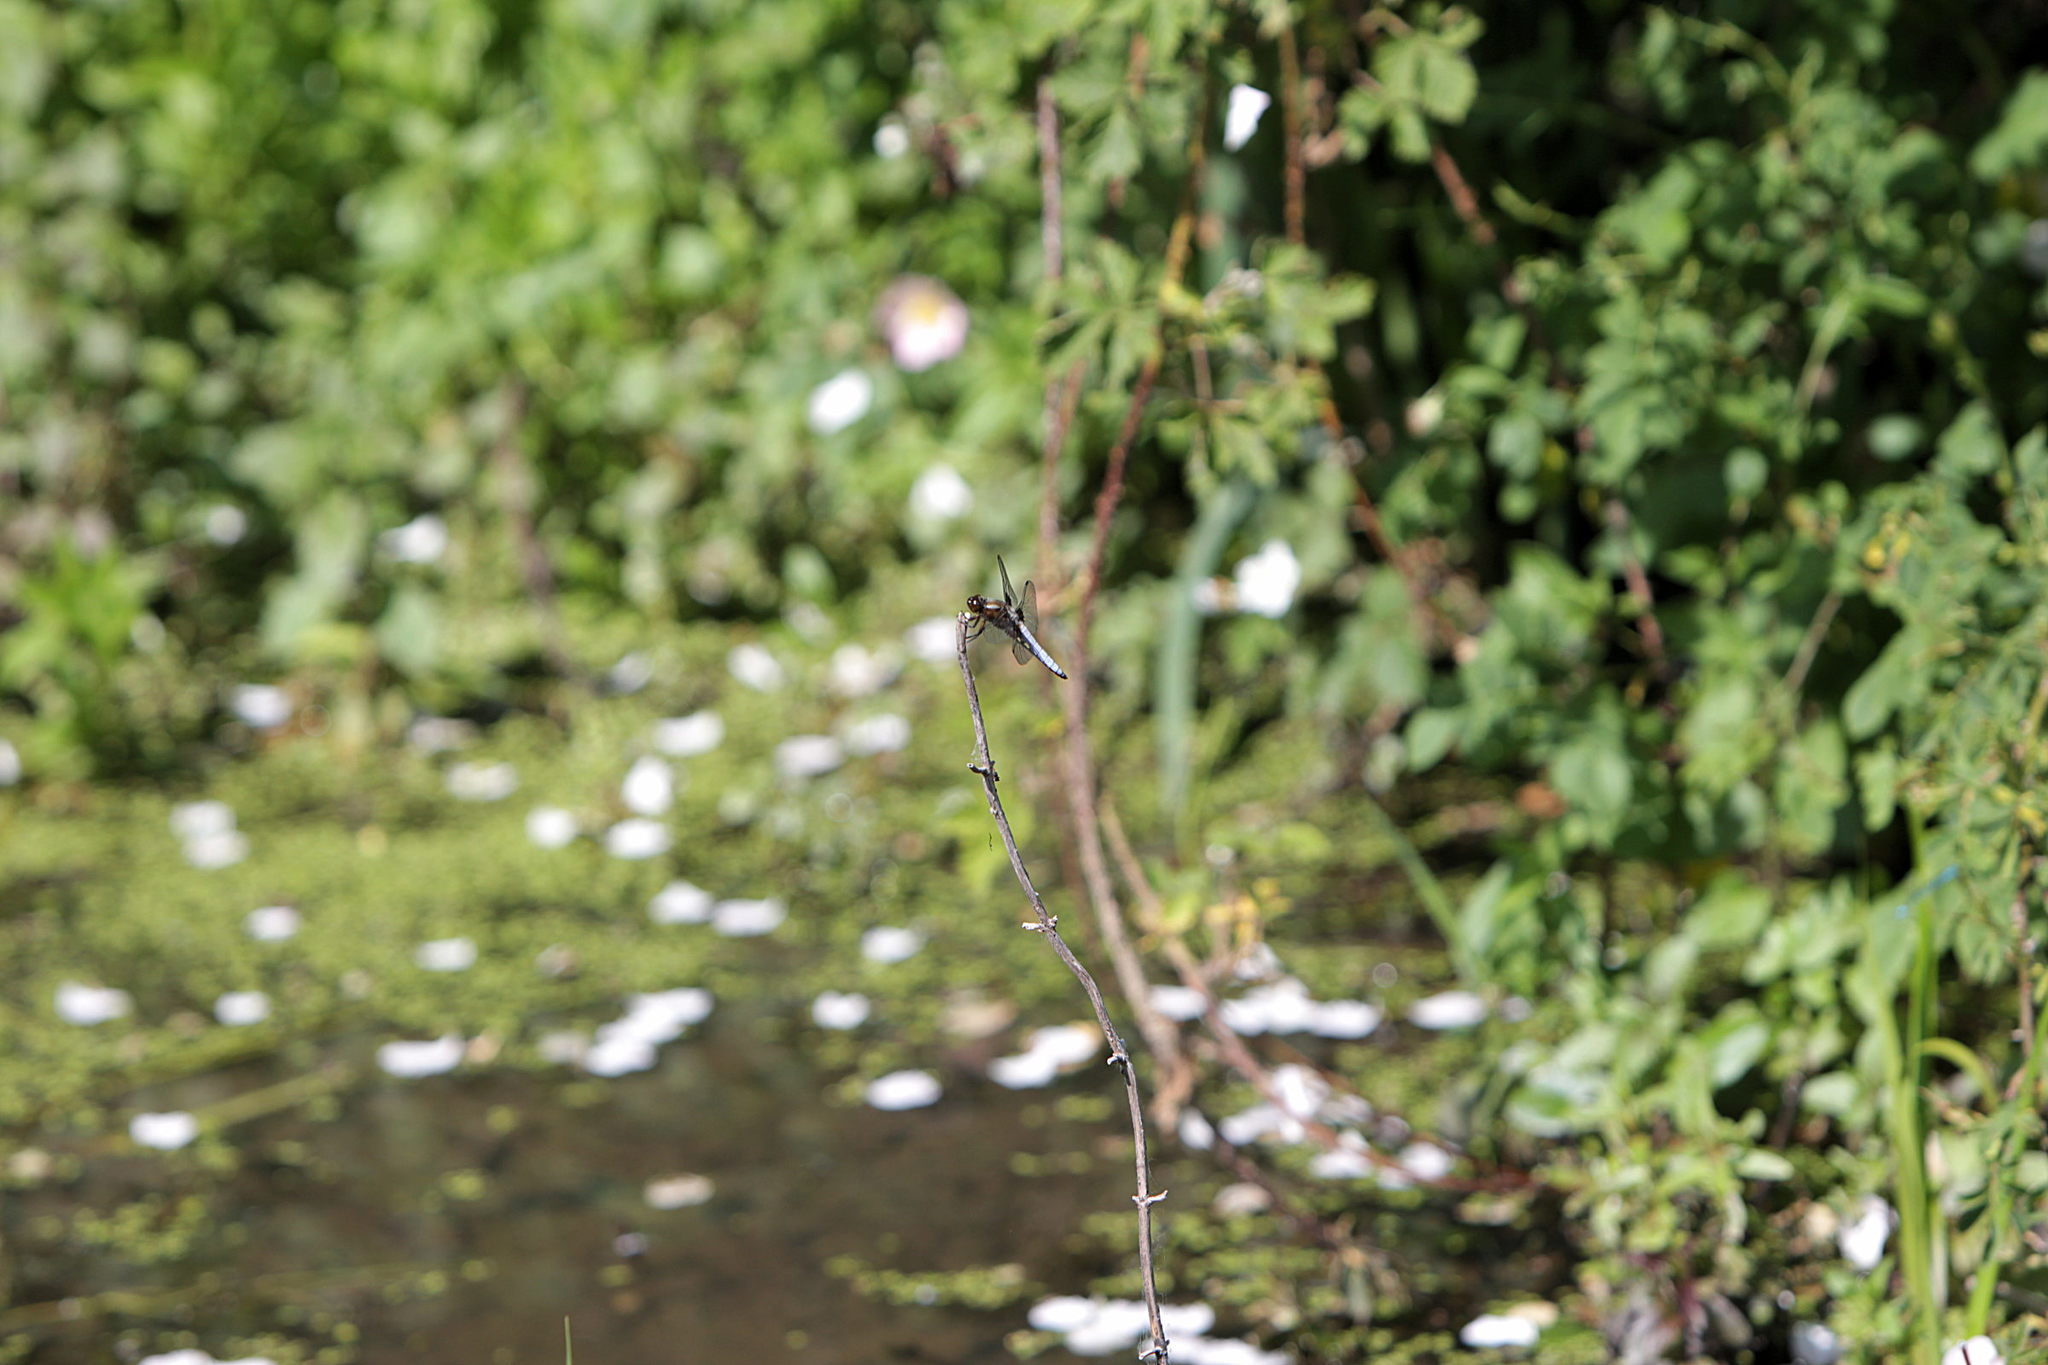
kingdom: Animalia
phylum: Arthropoda
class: Insecta
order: Odonata
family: Libellulidae
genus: Libellula
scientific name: Libellula depressa
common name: Broad-bodied chaser
